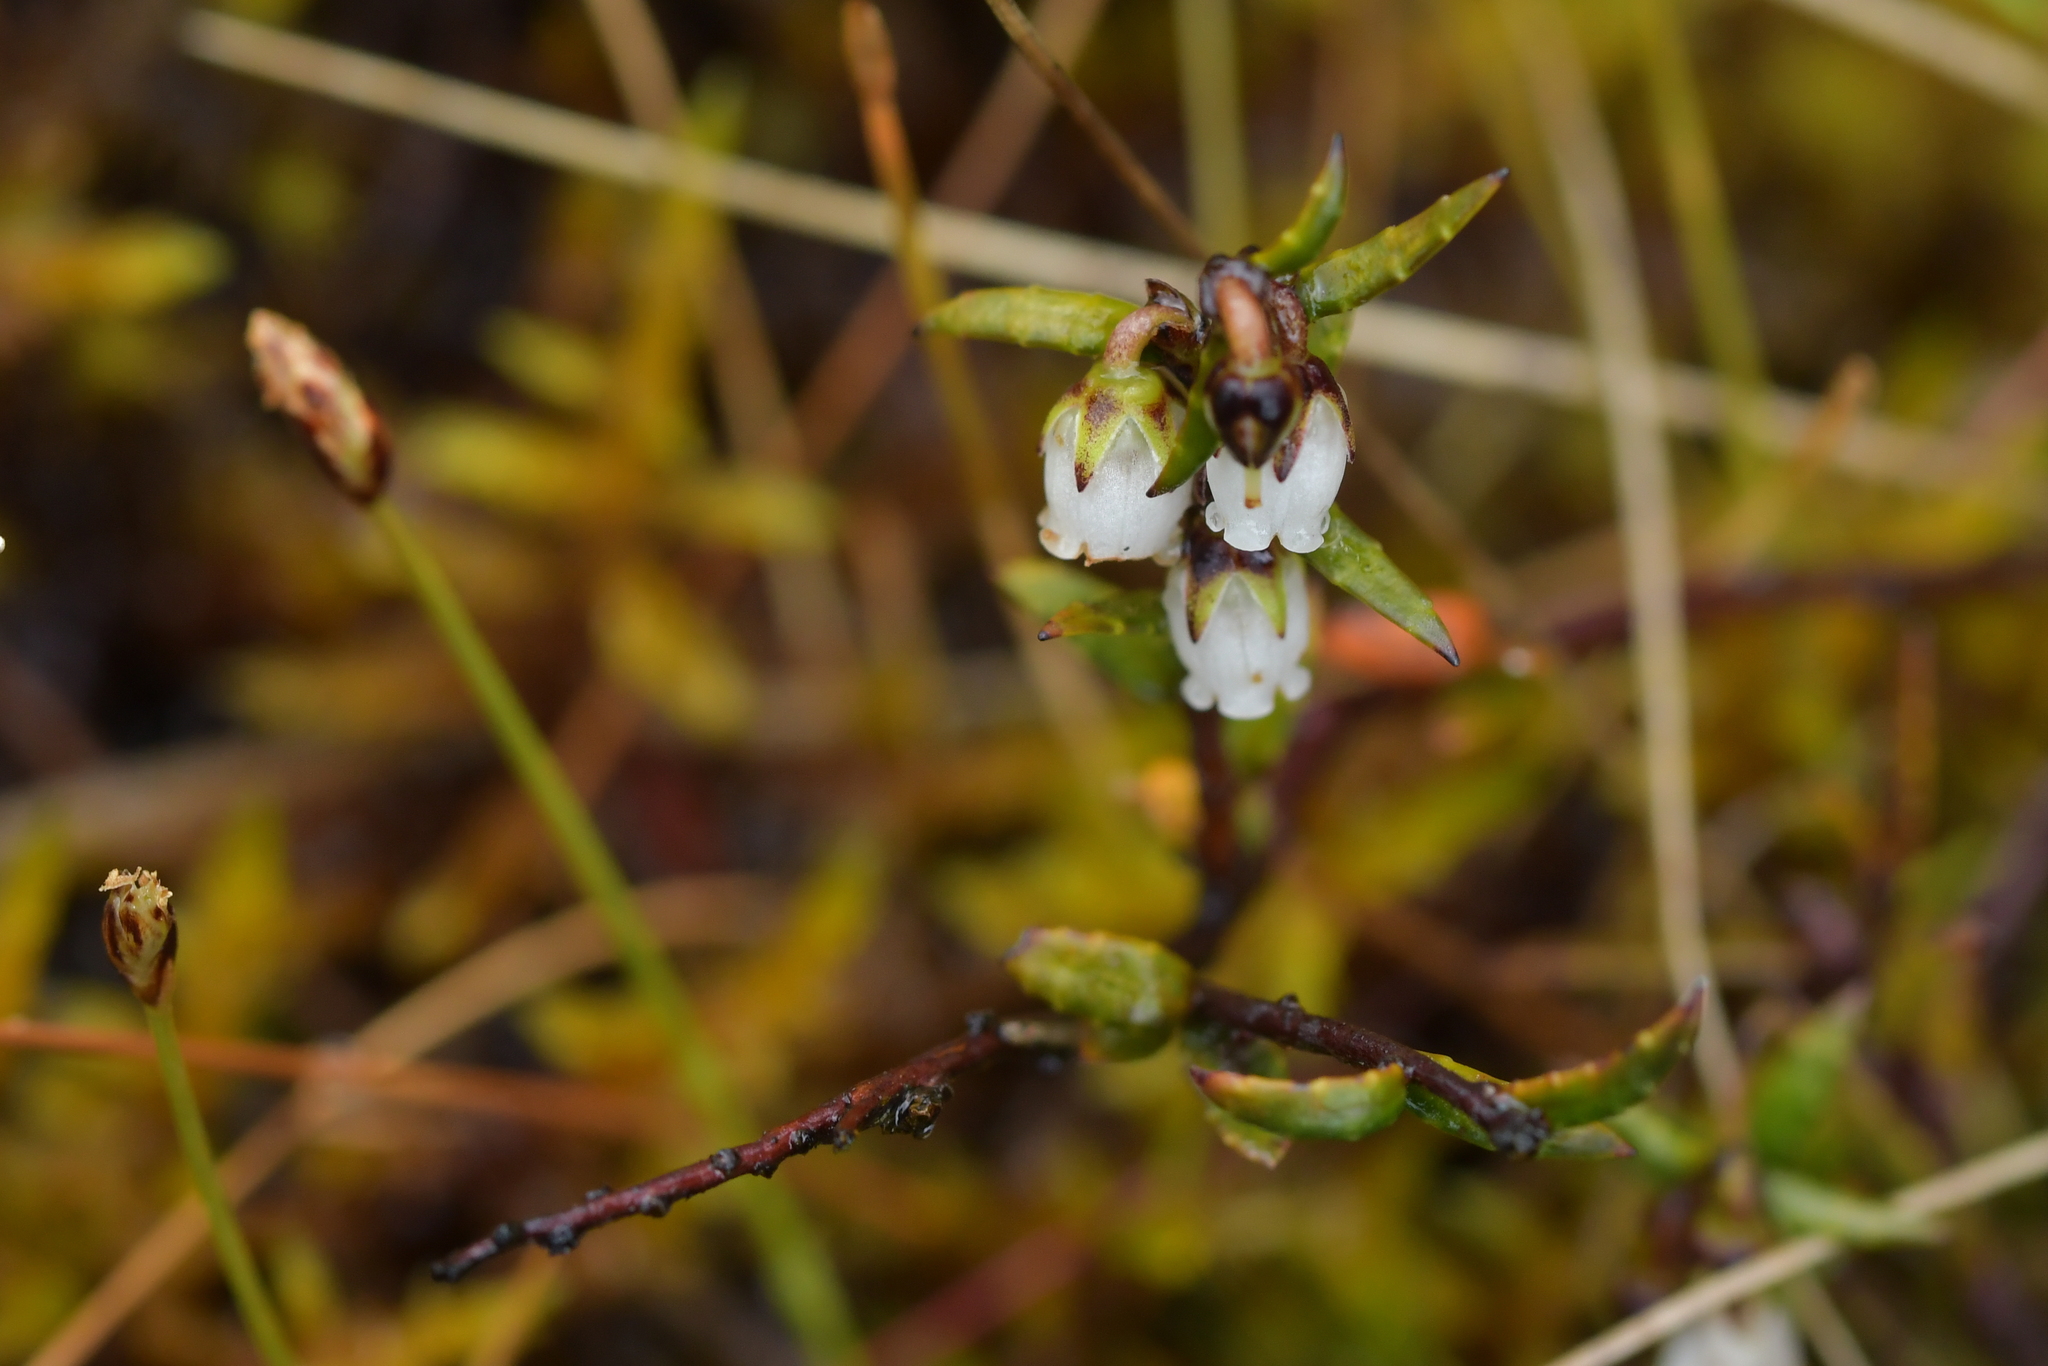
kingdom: Plantae
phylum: Tracheophyta
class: Magnoliopsida
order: Ericales
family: Ericaceae
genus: Gaultheria
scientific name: Gaultheria macrostigma
